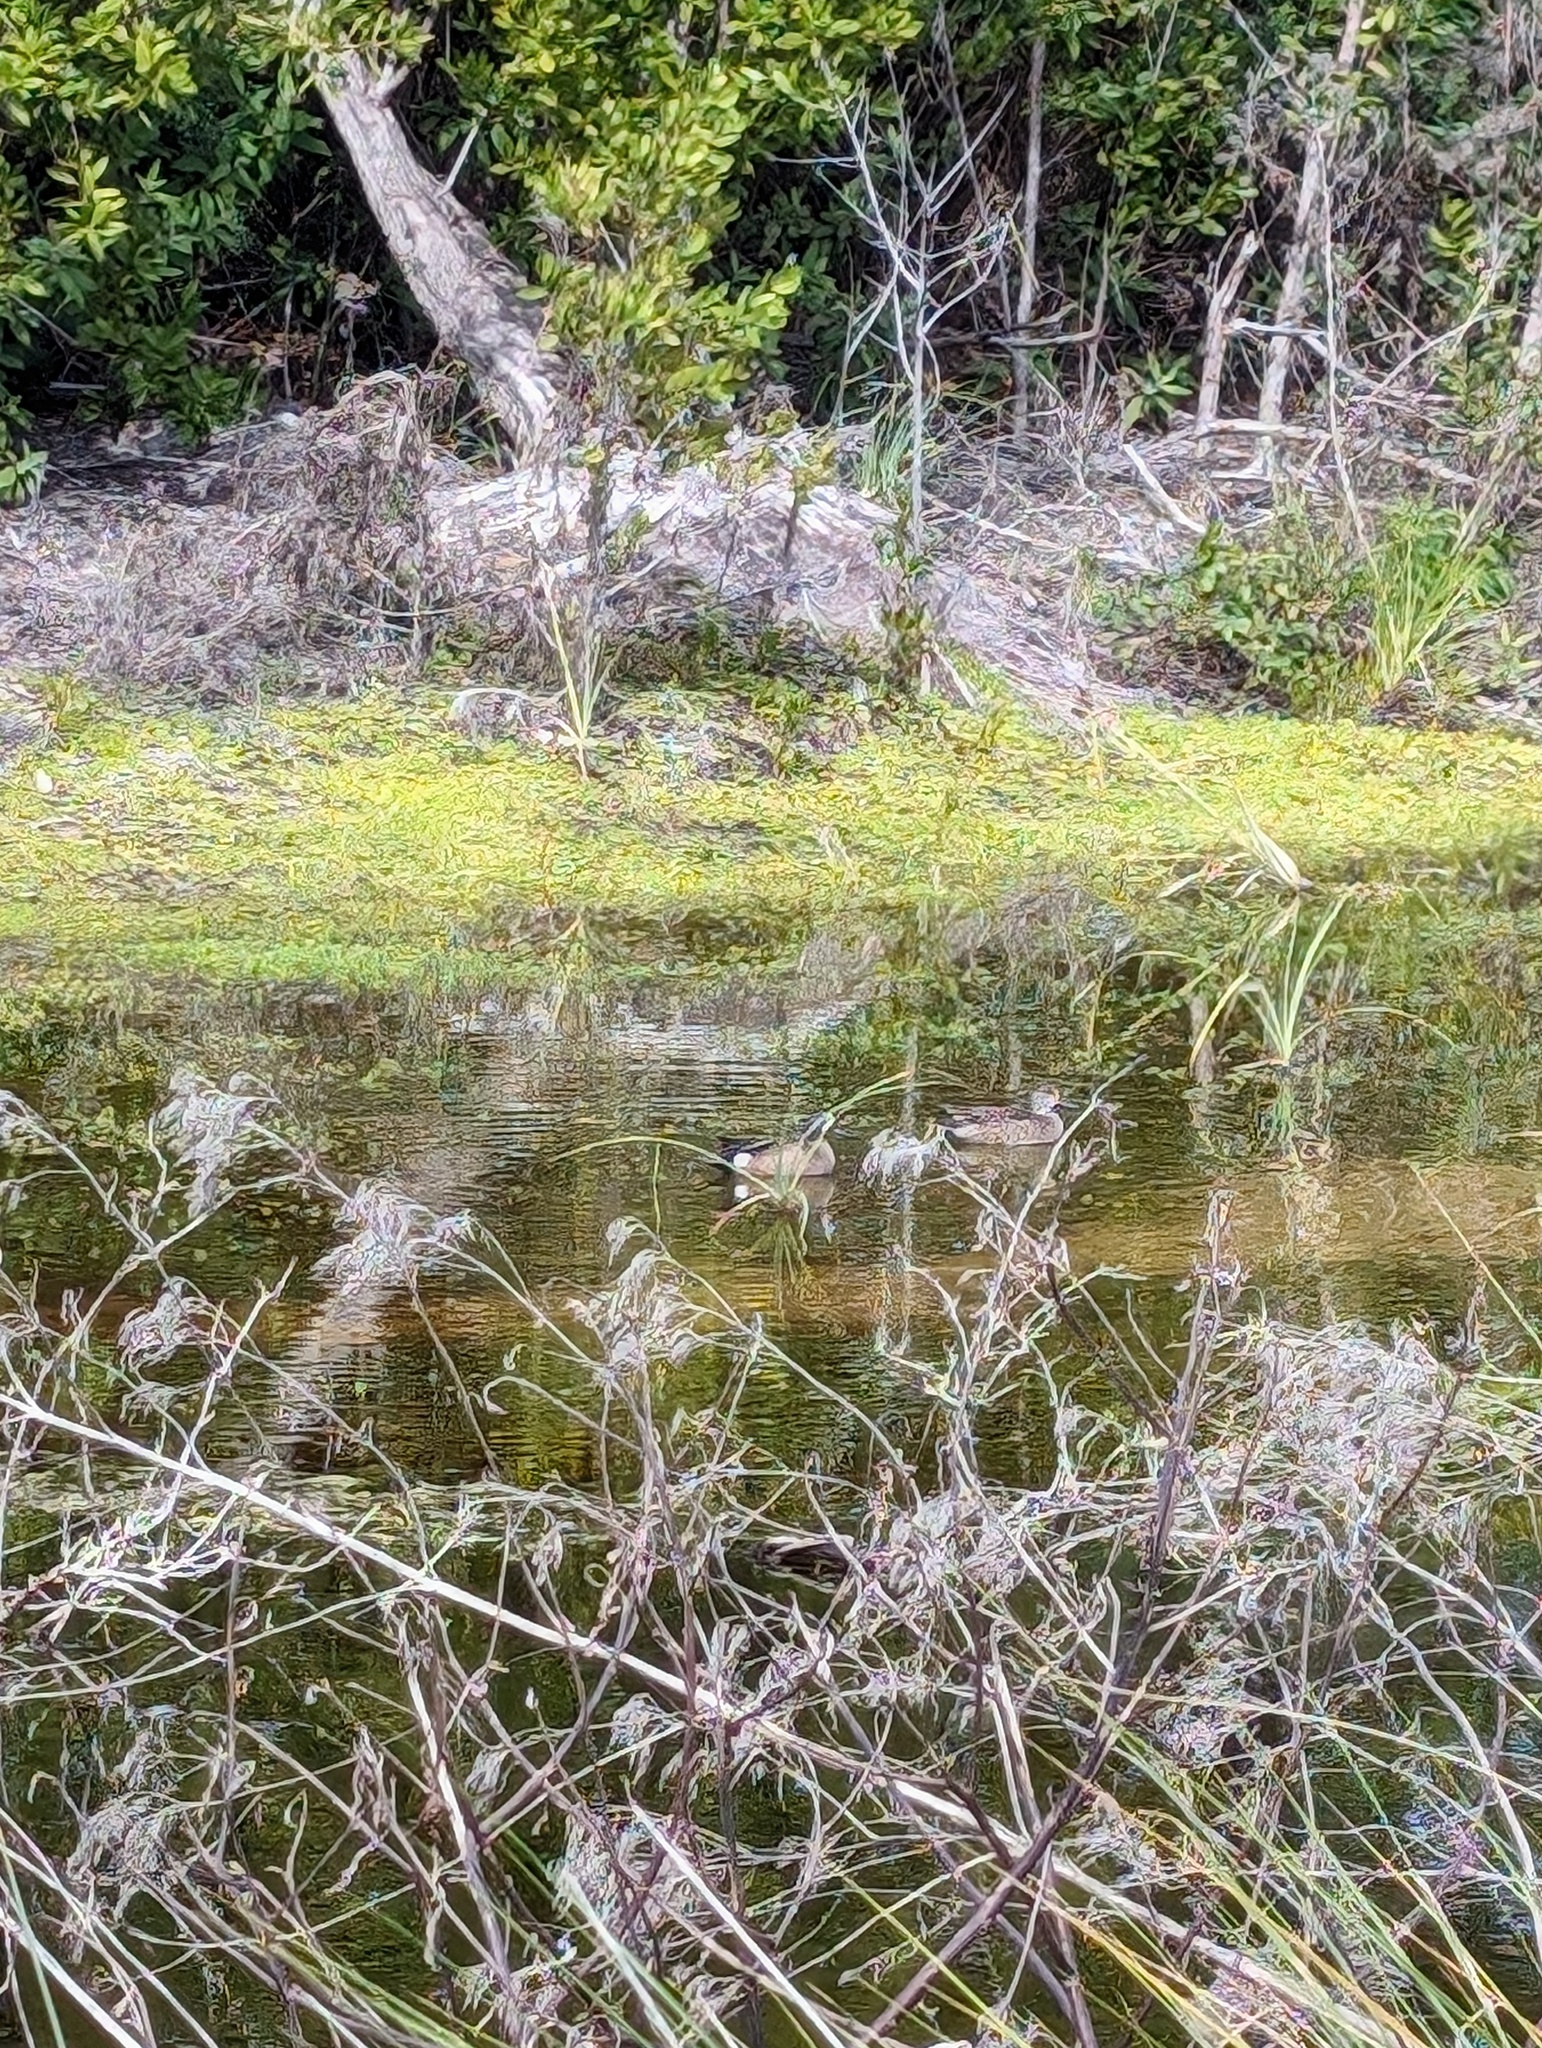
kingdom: Animalia
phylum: Chordata
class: Aves
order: Anseriformes
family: Anatidae
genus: Spatula
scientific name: Spatula discors
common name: Blue-winged teal
